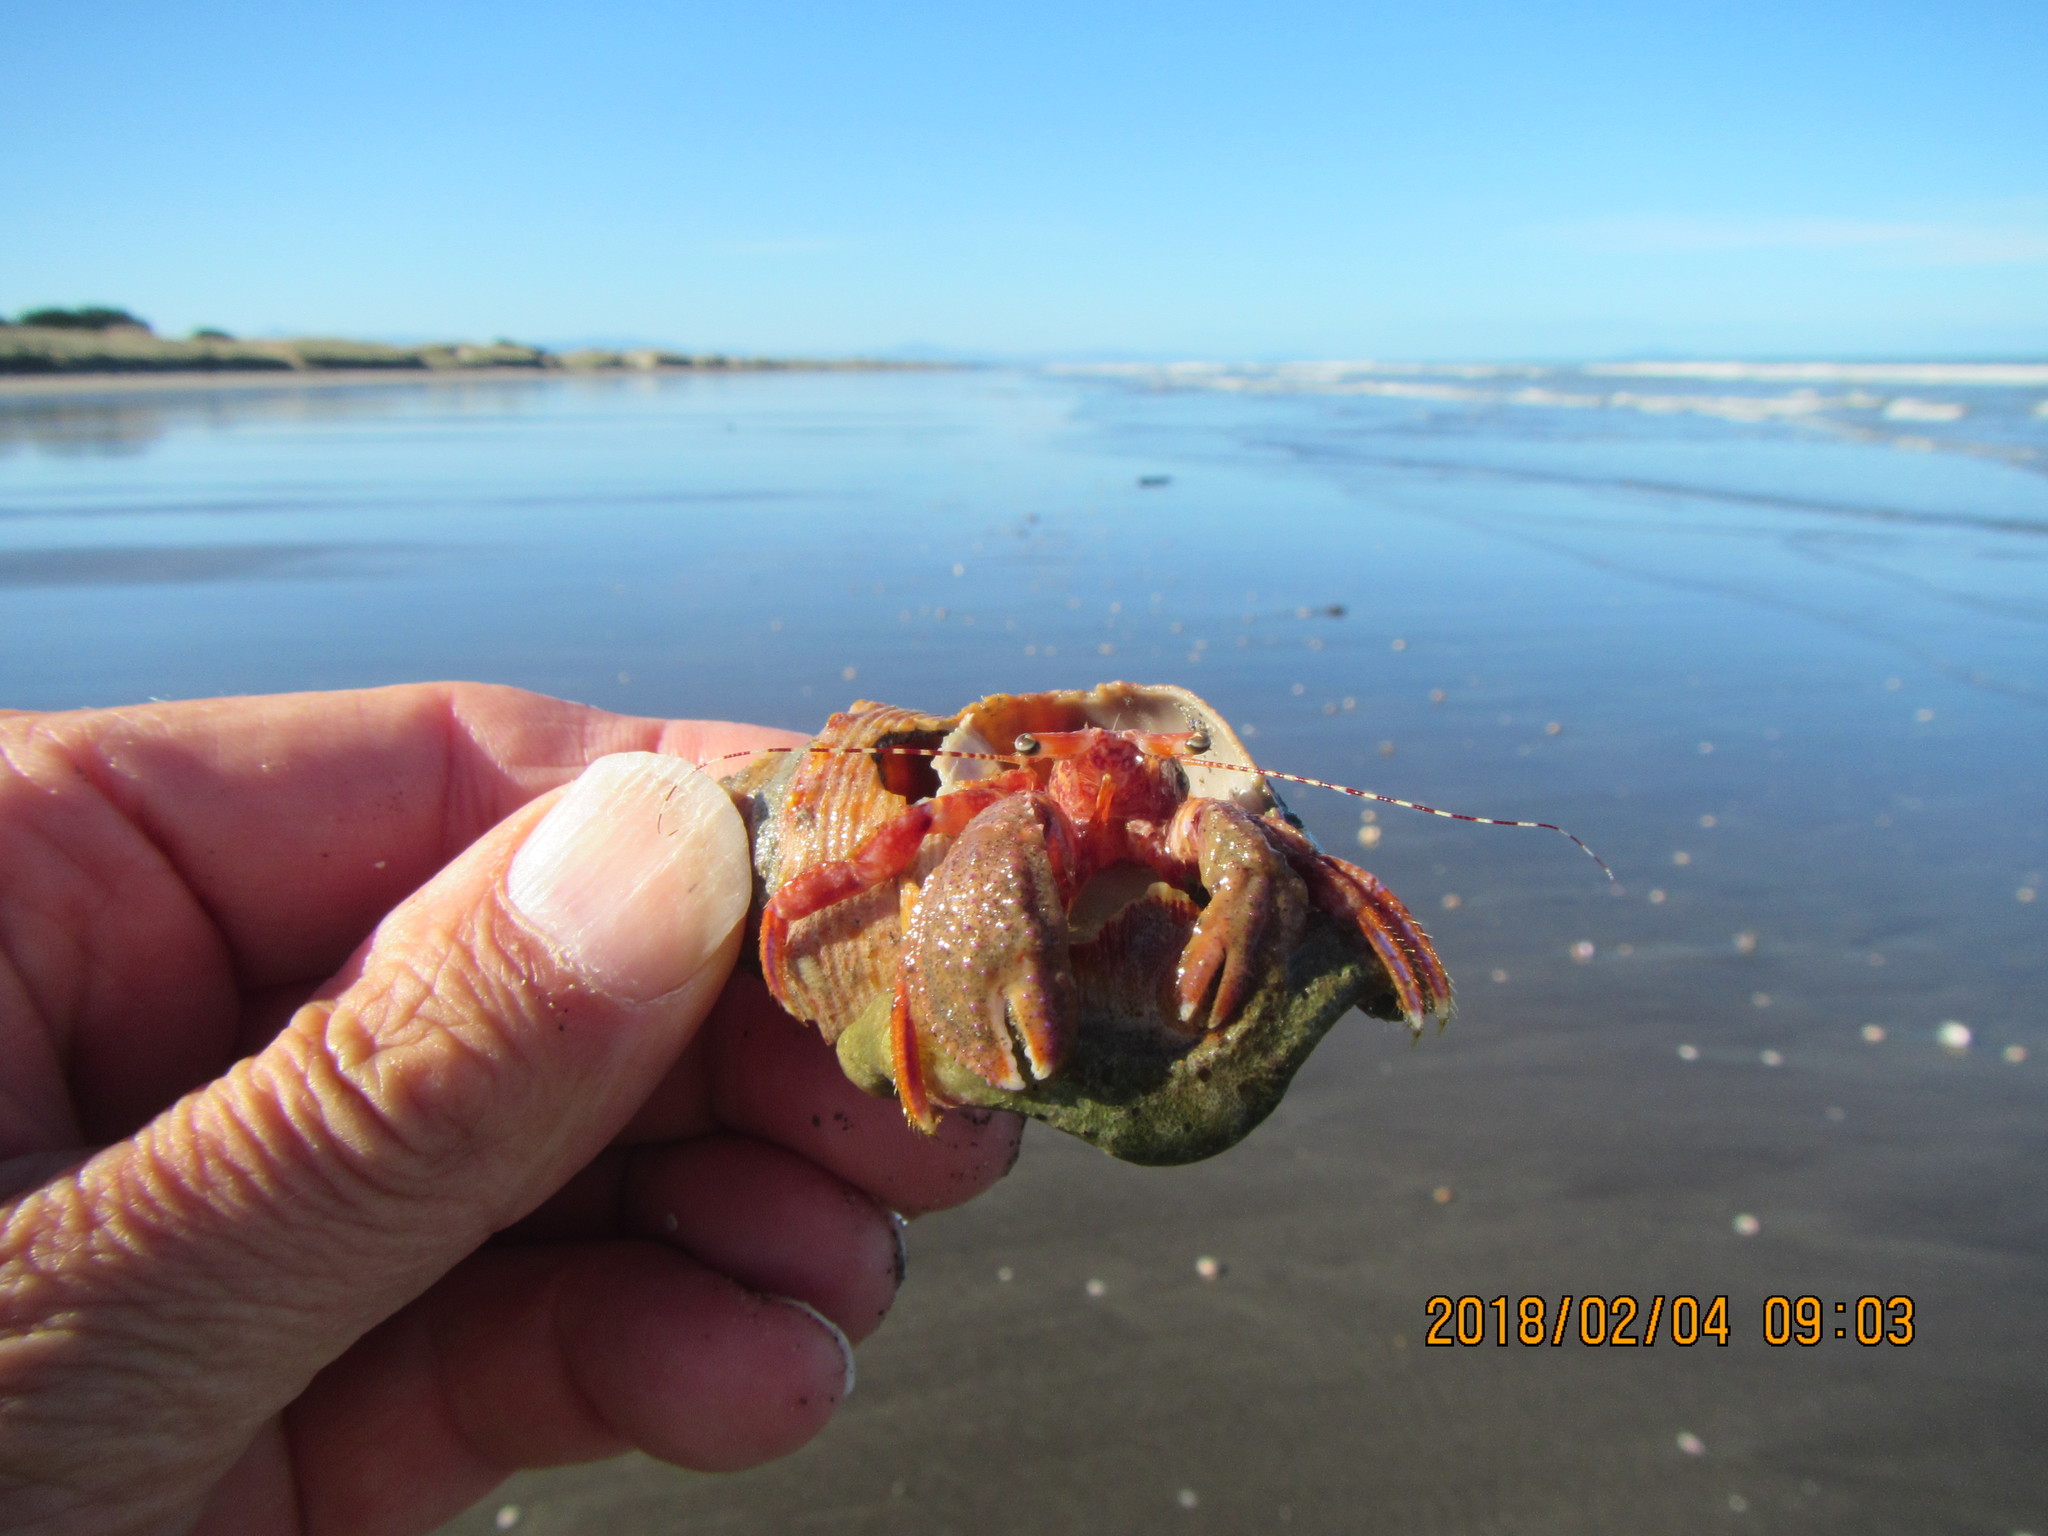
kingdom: Animalia
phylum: Mollusca
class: Gastropoda
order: Littorinimorpha
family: Struthiolariidae
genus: Struthiolaria
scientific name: Struthiolaria papulosa
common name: Large ostrich foot
